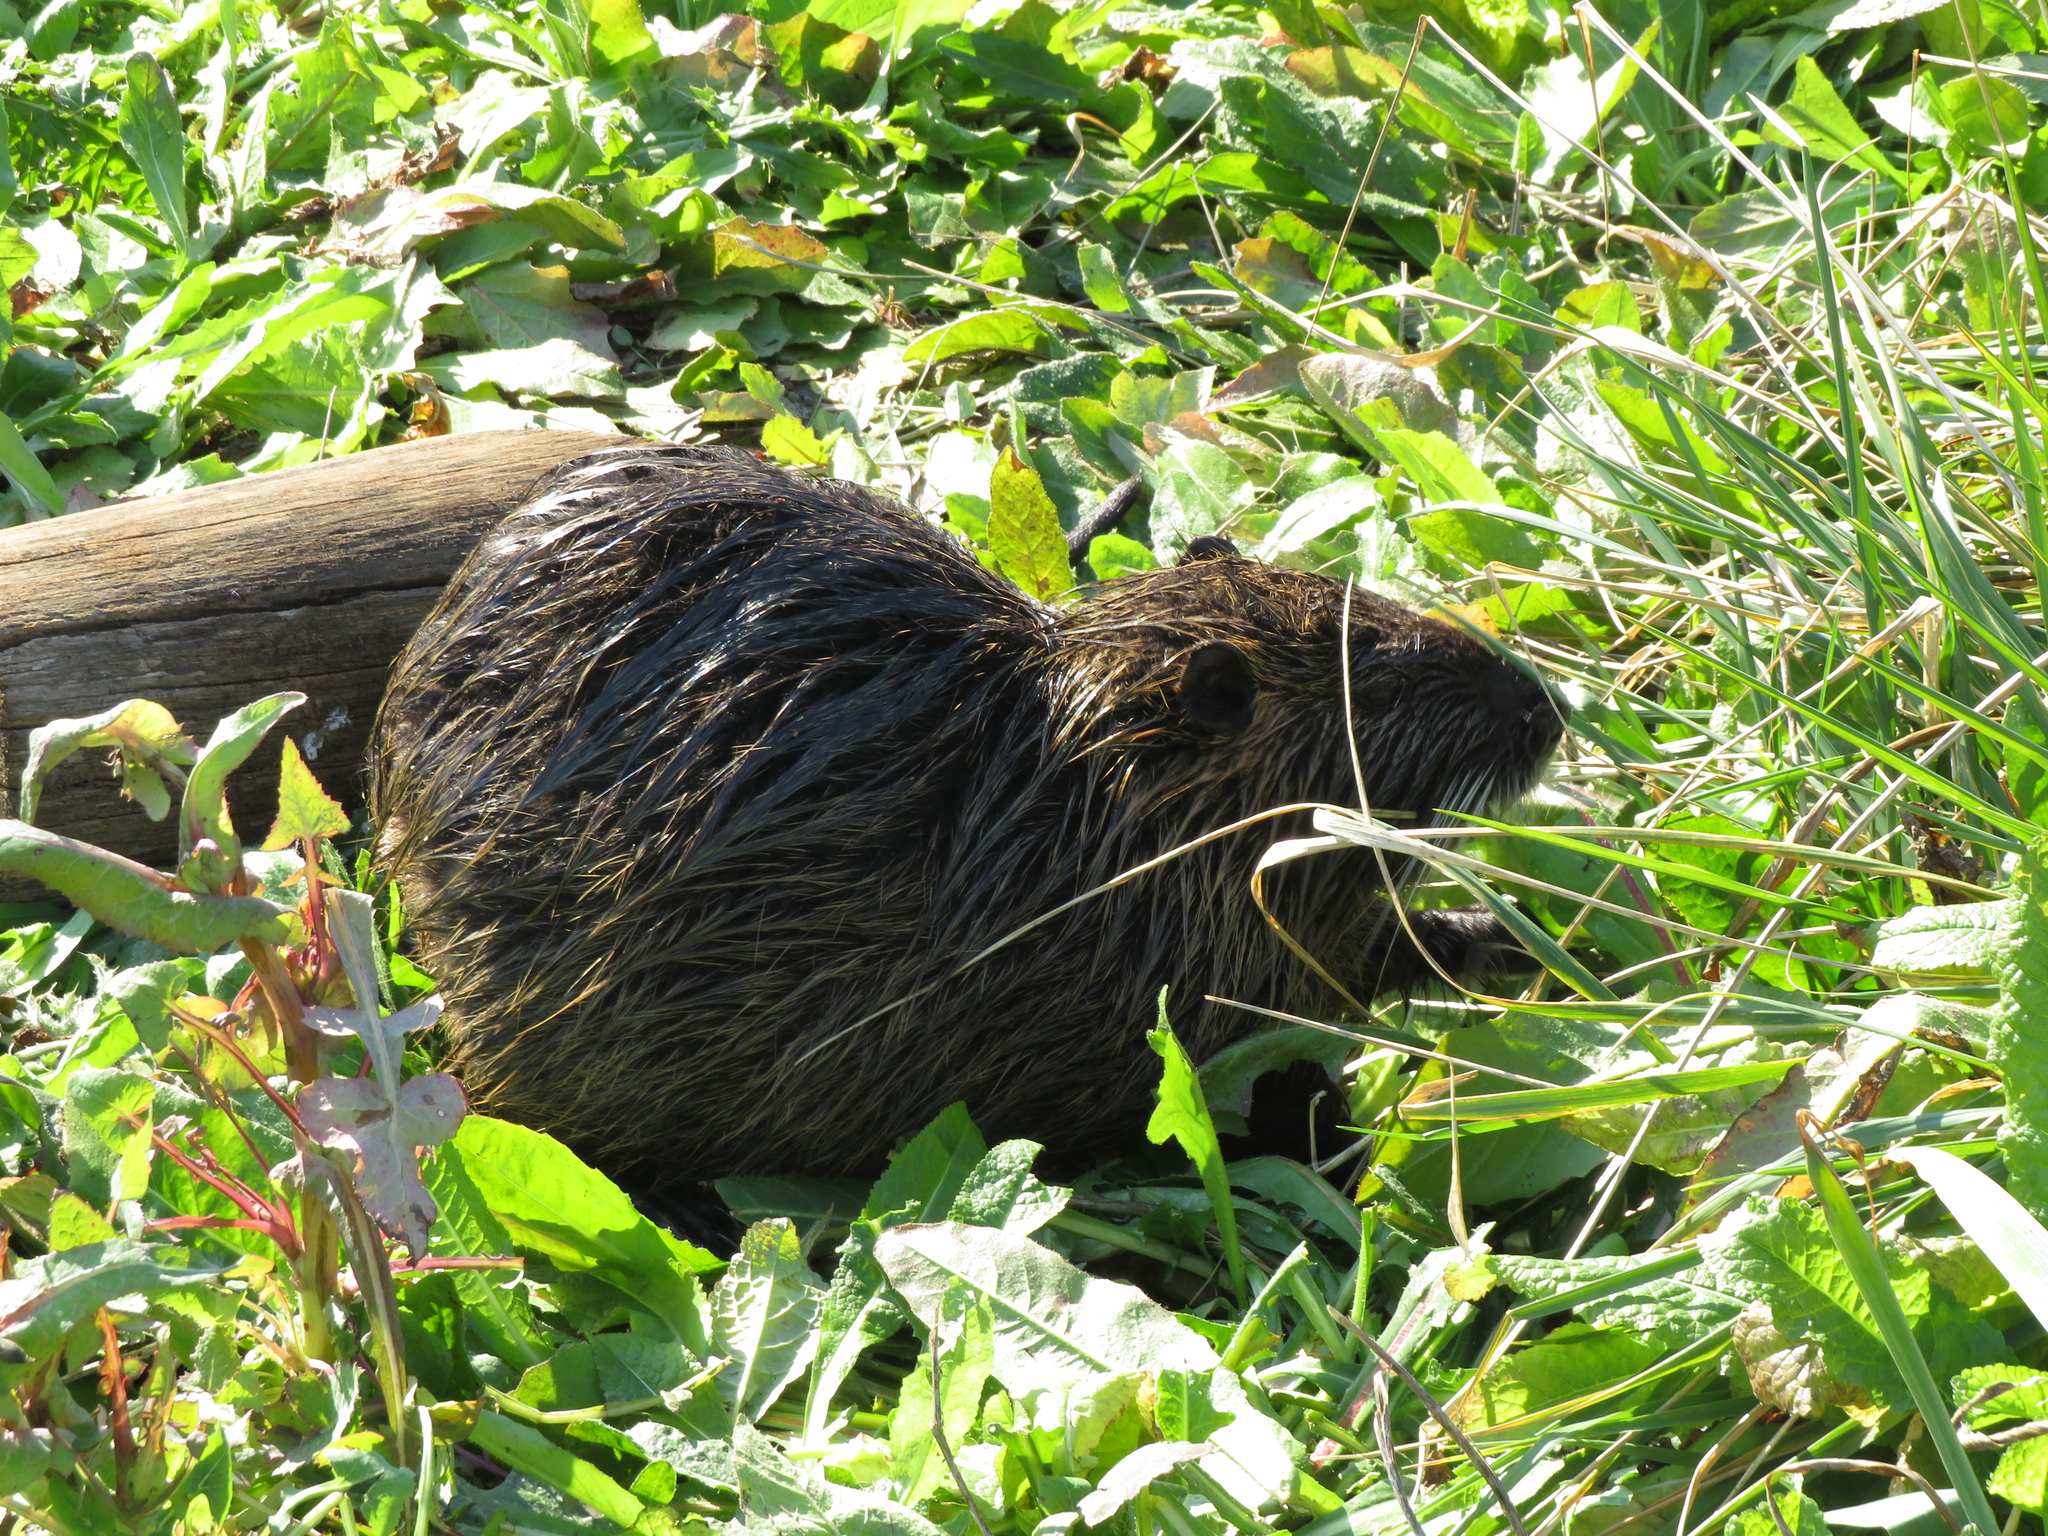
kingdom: Animalia
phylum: Chordata
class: Mammalia
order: Rodentia
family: Myocastoridae
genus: Myocastor
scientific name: Myocastor coypus
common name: Coypu
